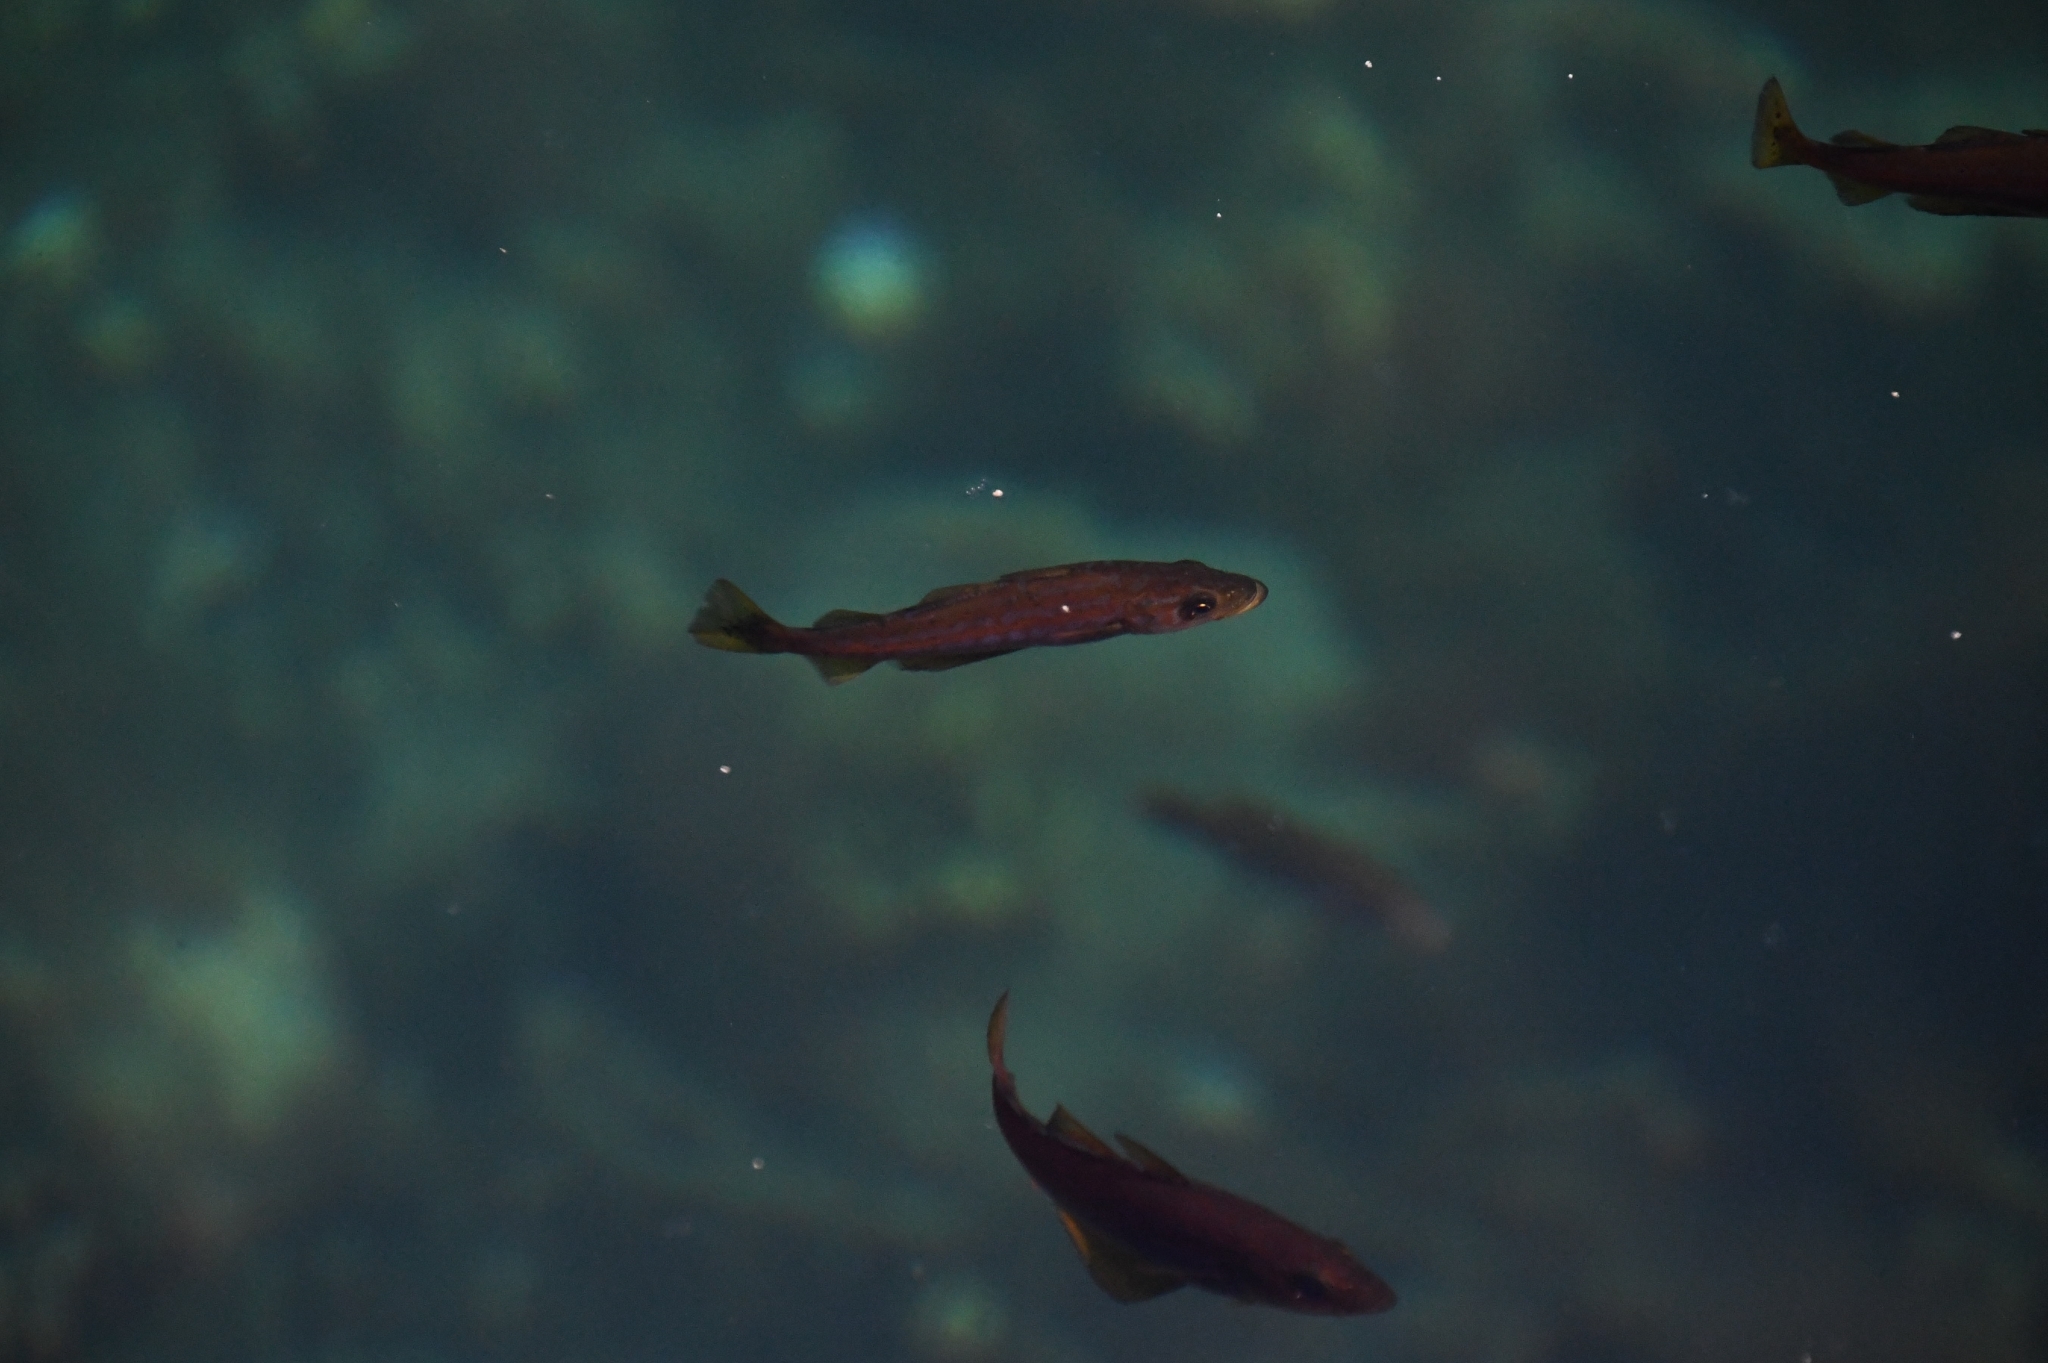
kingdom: Animalia
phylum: Chordata
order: Gadiformes
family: Gadidae
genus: Pollachius
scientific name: Pollachius pollachius
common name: Pollack
